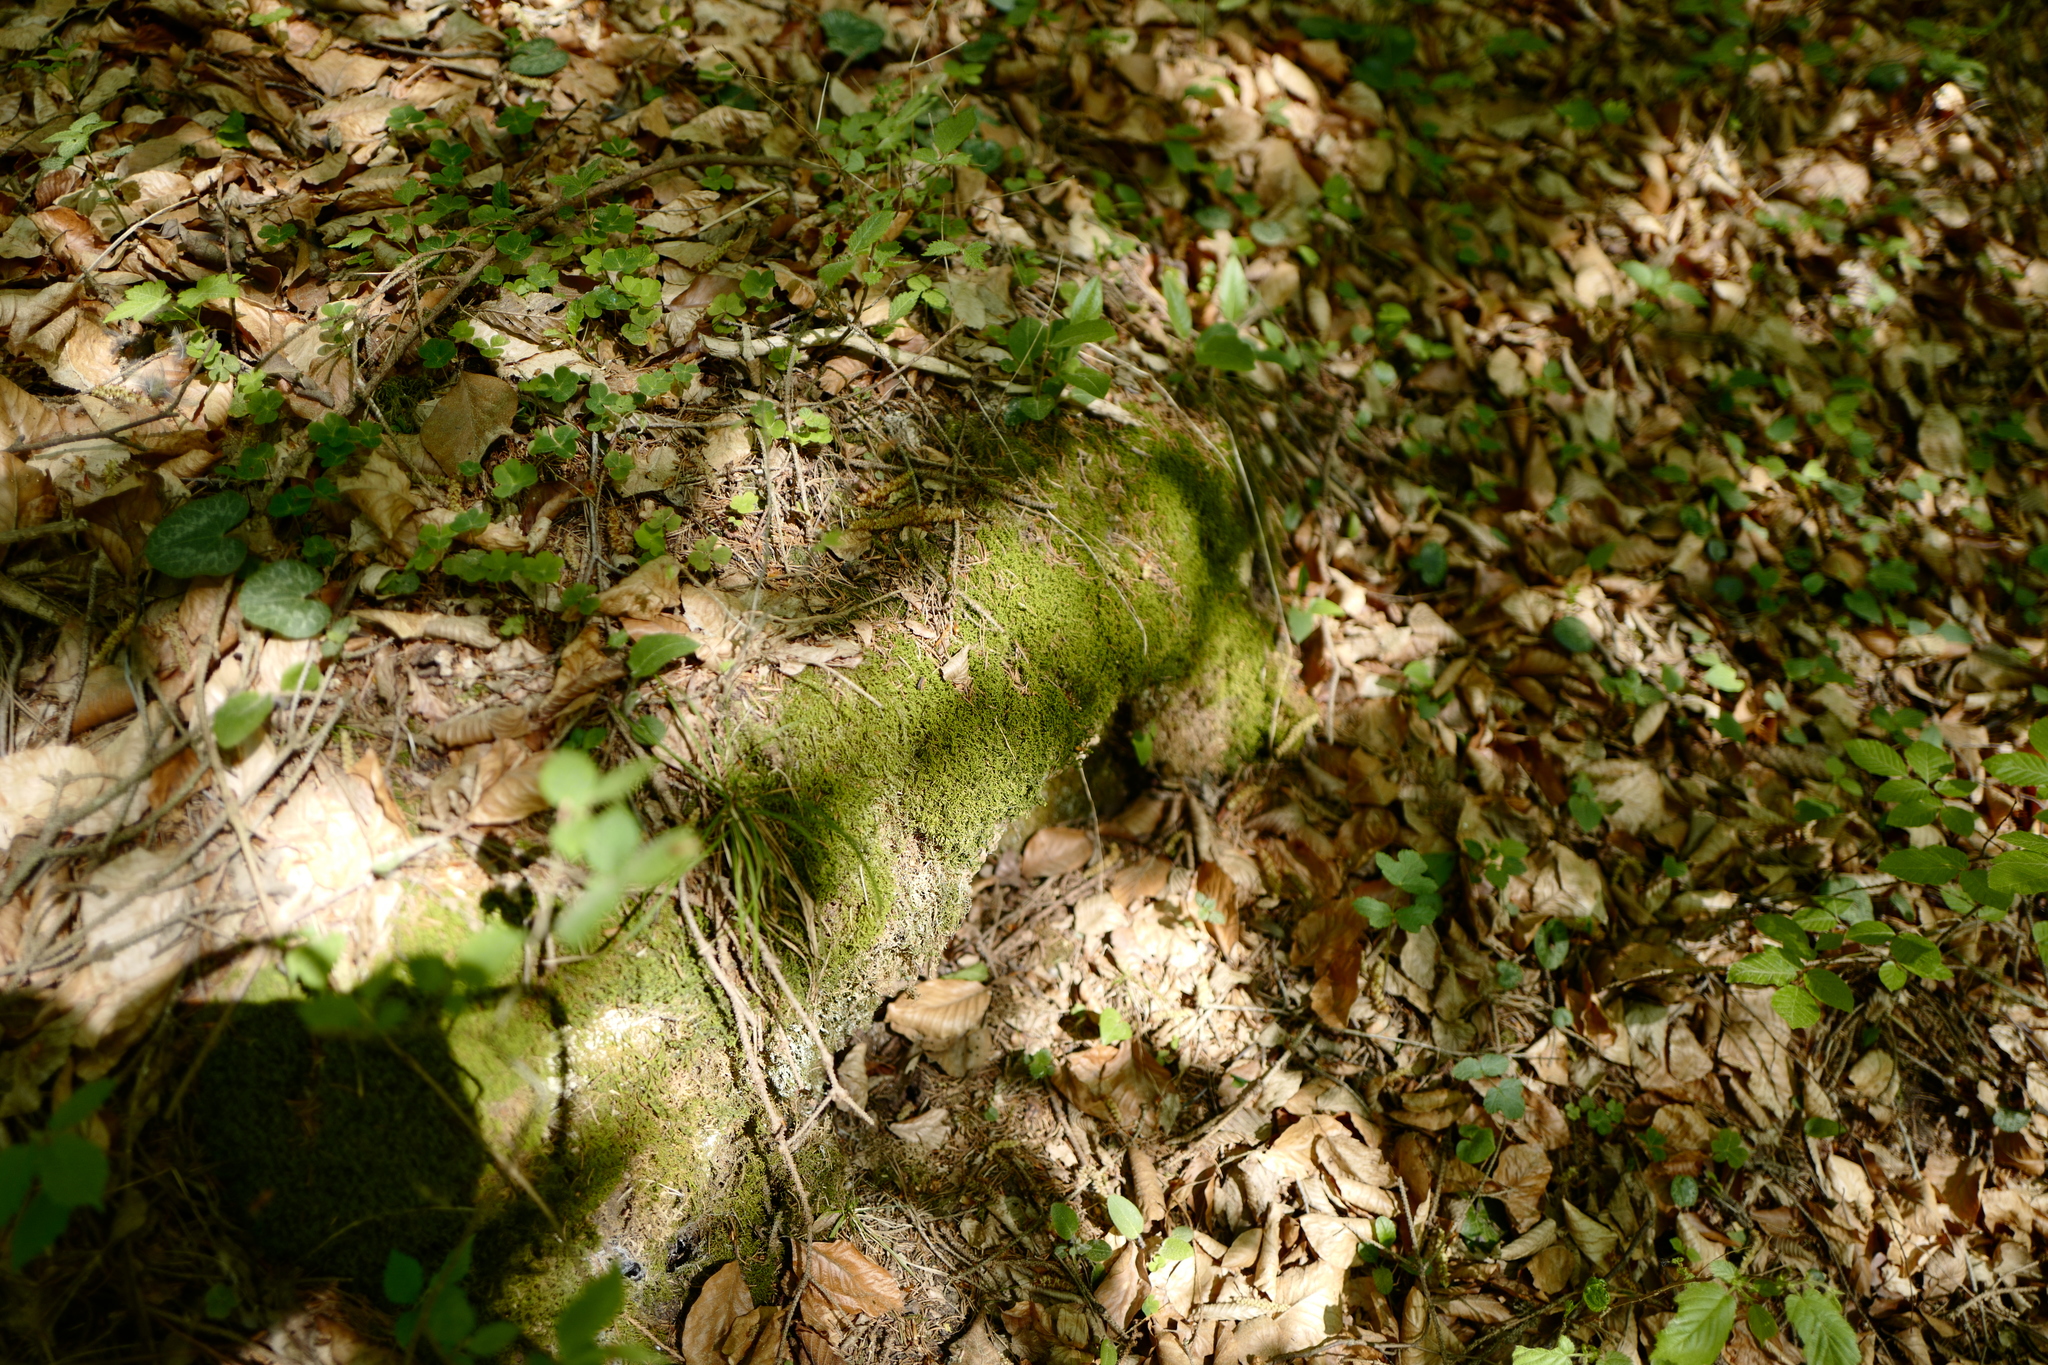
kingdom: Plantae
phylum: Bryophyta
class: Bryopsida
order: Hypnales
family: Neckeraceae
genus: Pseudanomodon
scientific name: Pseudanomodon attenuatus
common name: Tree-skirt moss
